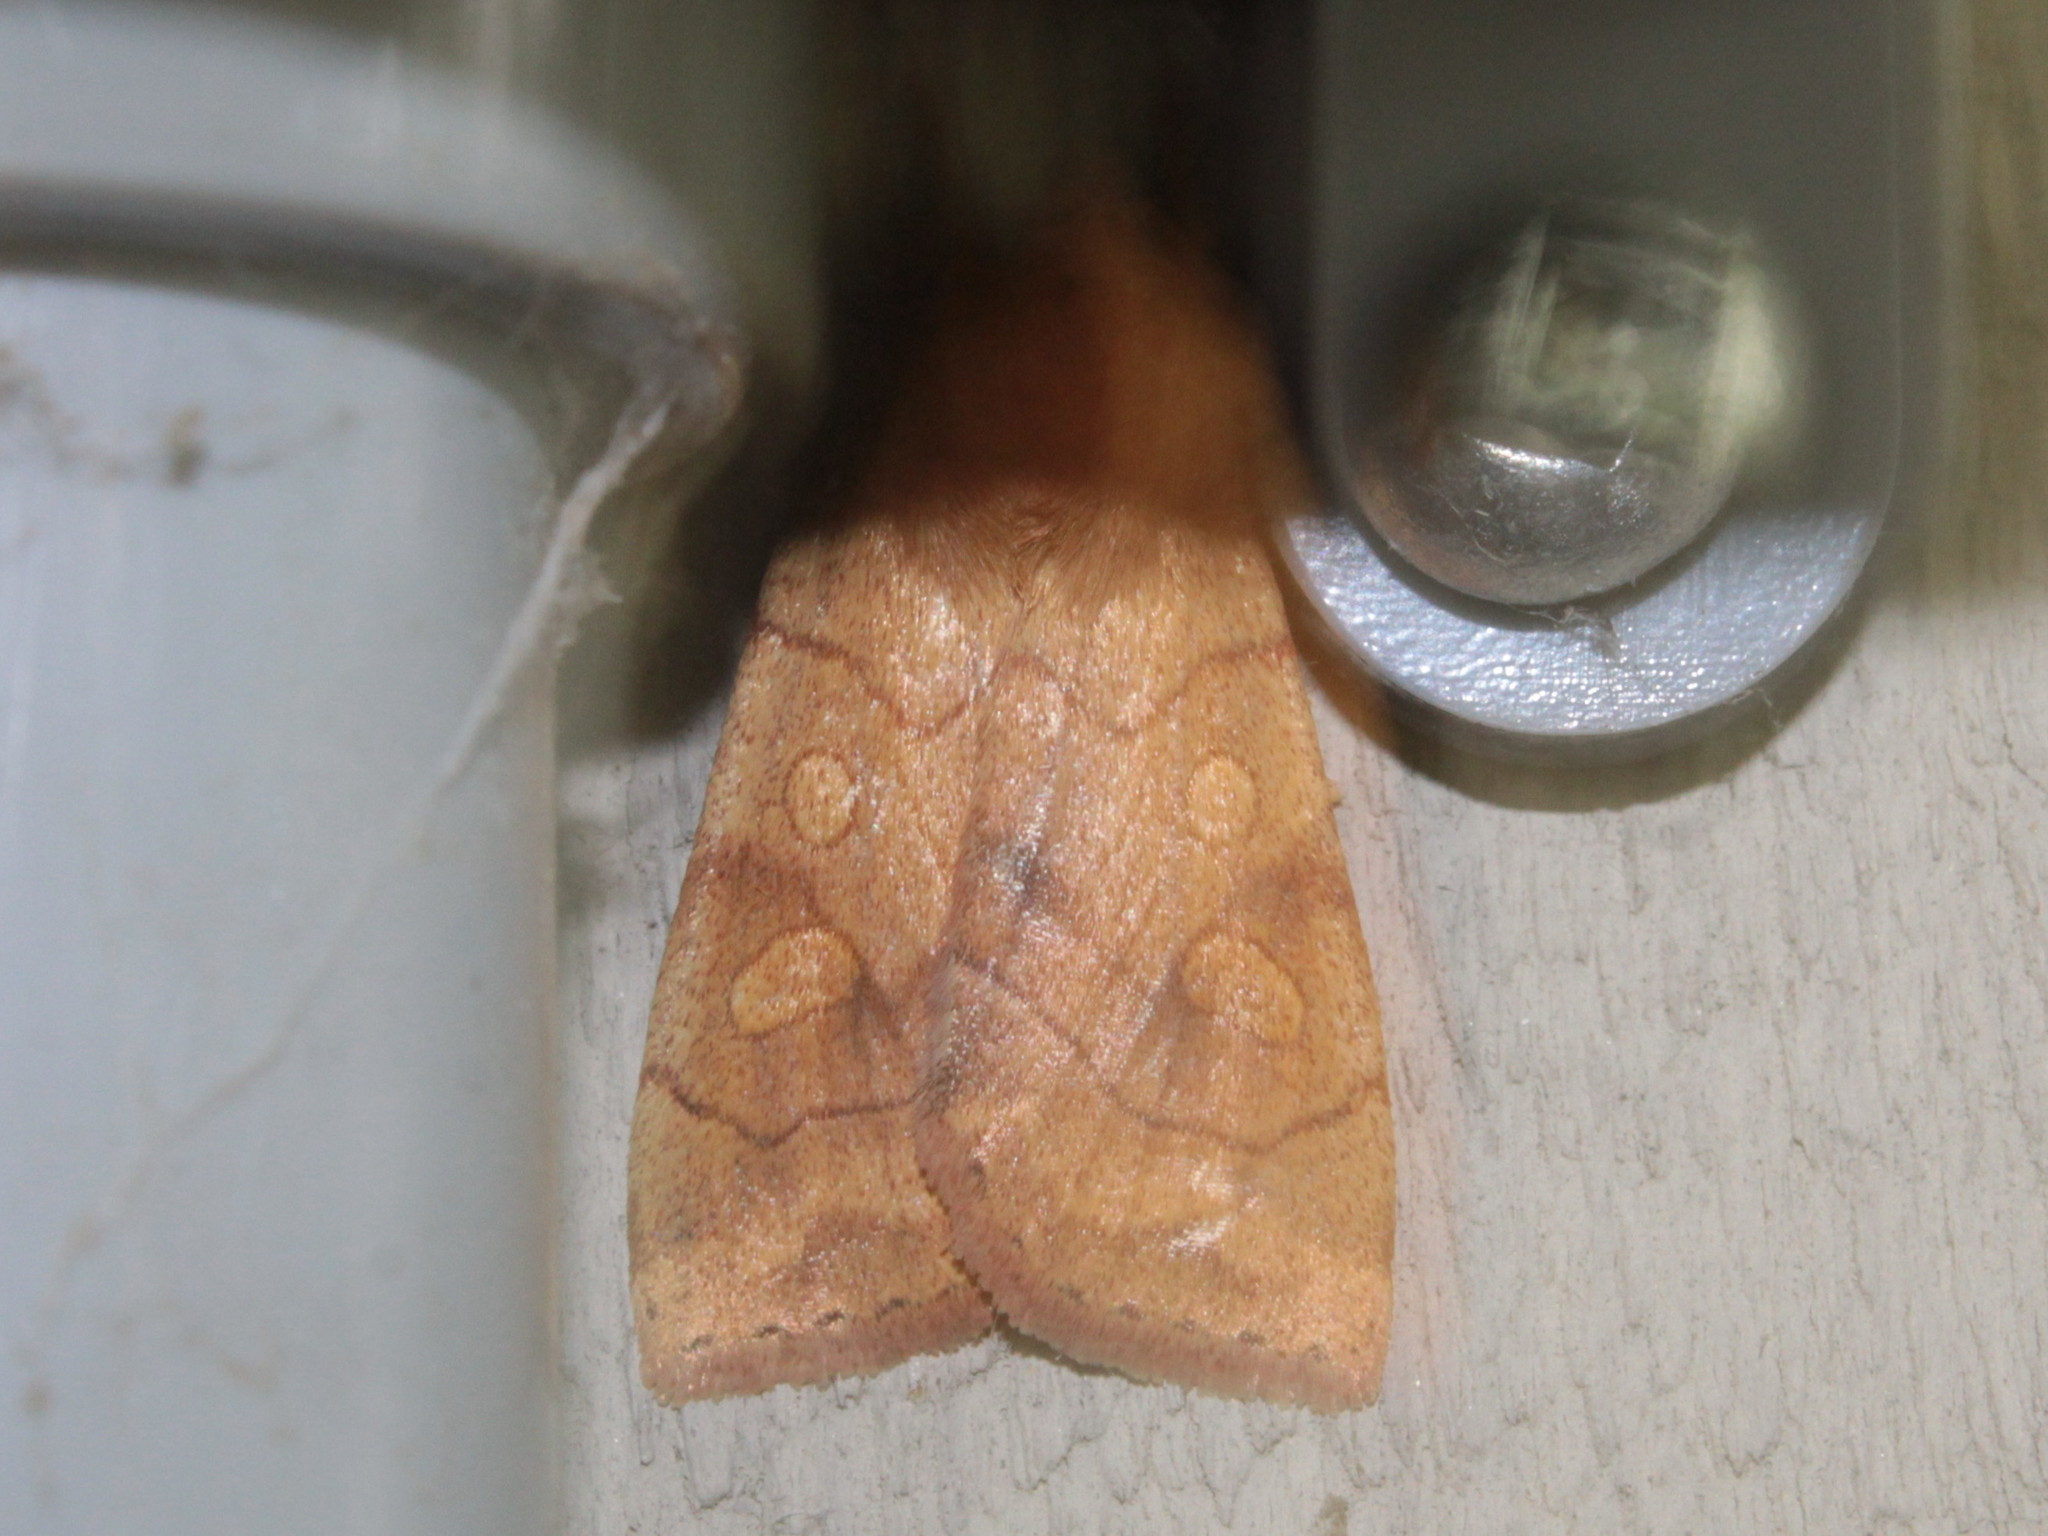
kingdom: Animalia
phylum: Arthropoda
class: Insecta
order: Lepidoptera
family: Noctuidae
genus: Enargia
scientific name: Enargia decolor
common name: Aspen twoleaf tier moth
